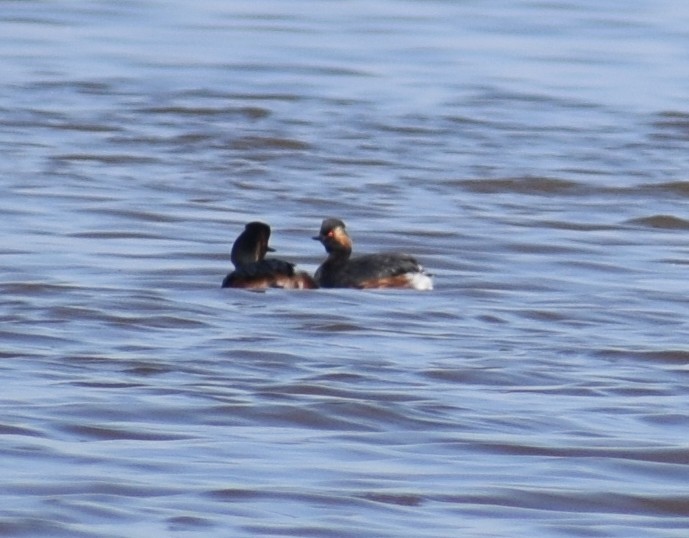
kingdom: Animalia
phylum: Chordata
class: Aves
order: Podicipediformes
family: Podicipedidae
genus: Podiceps
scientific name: Podiceps nigricollis
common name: Black-necked grebe
